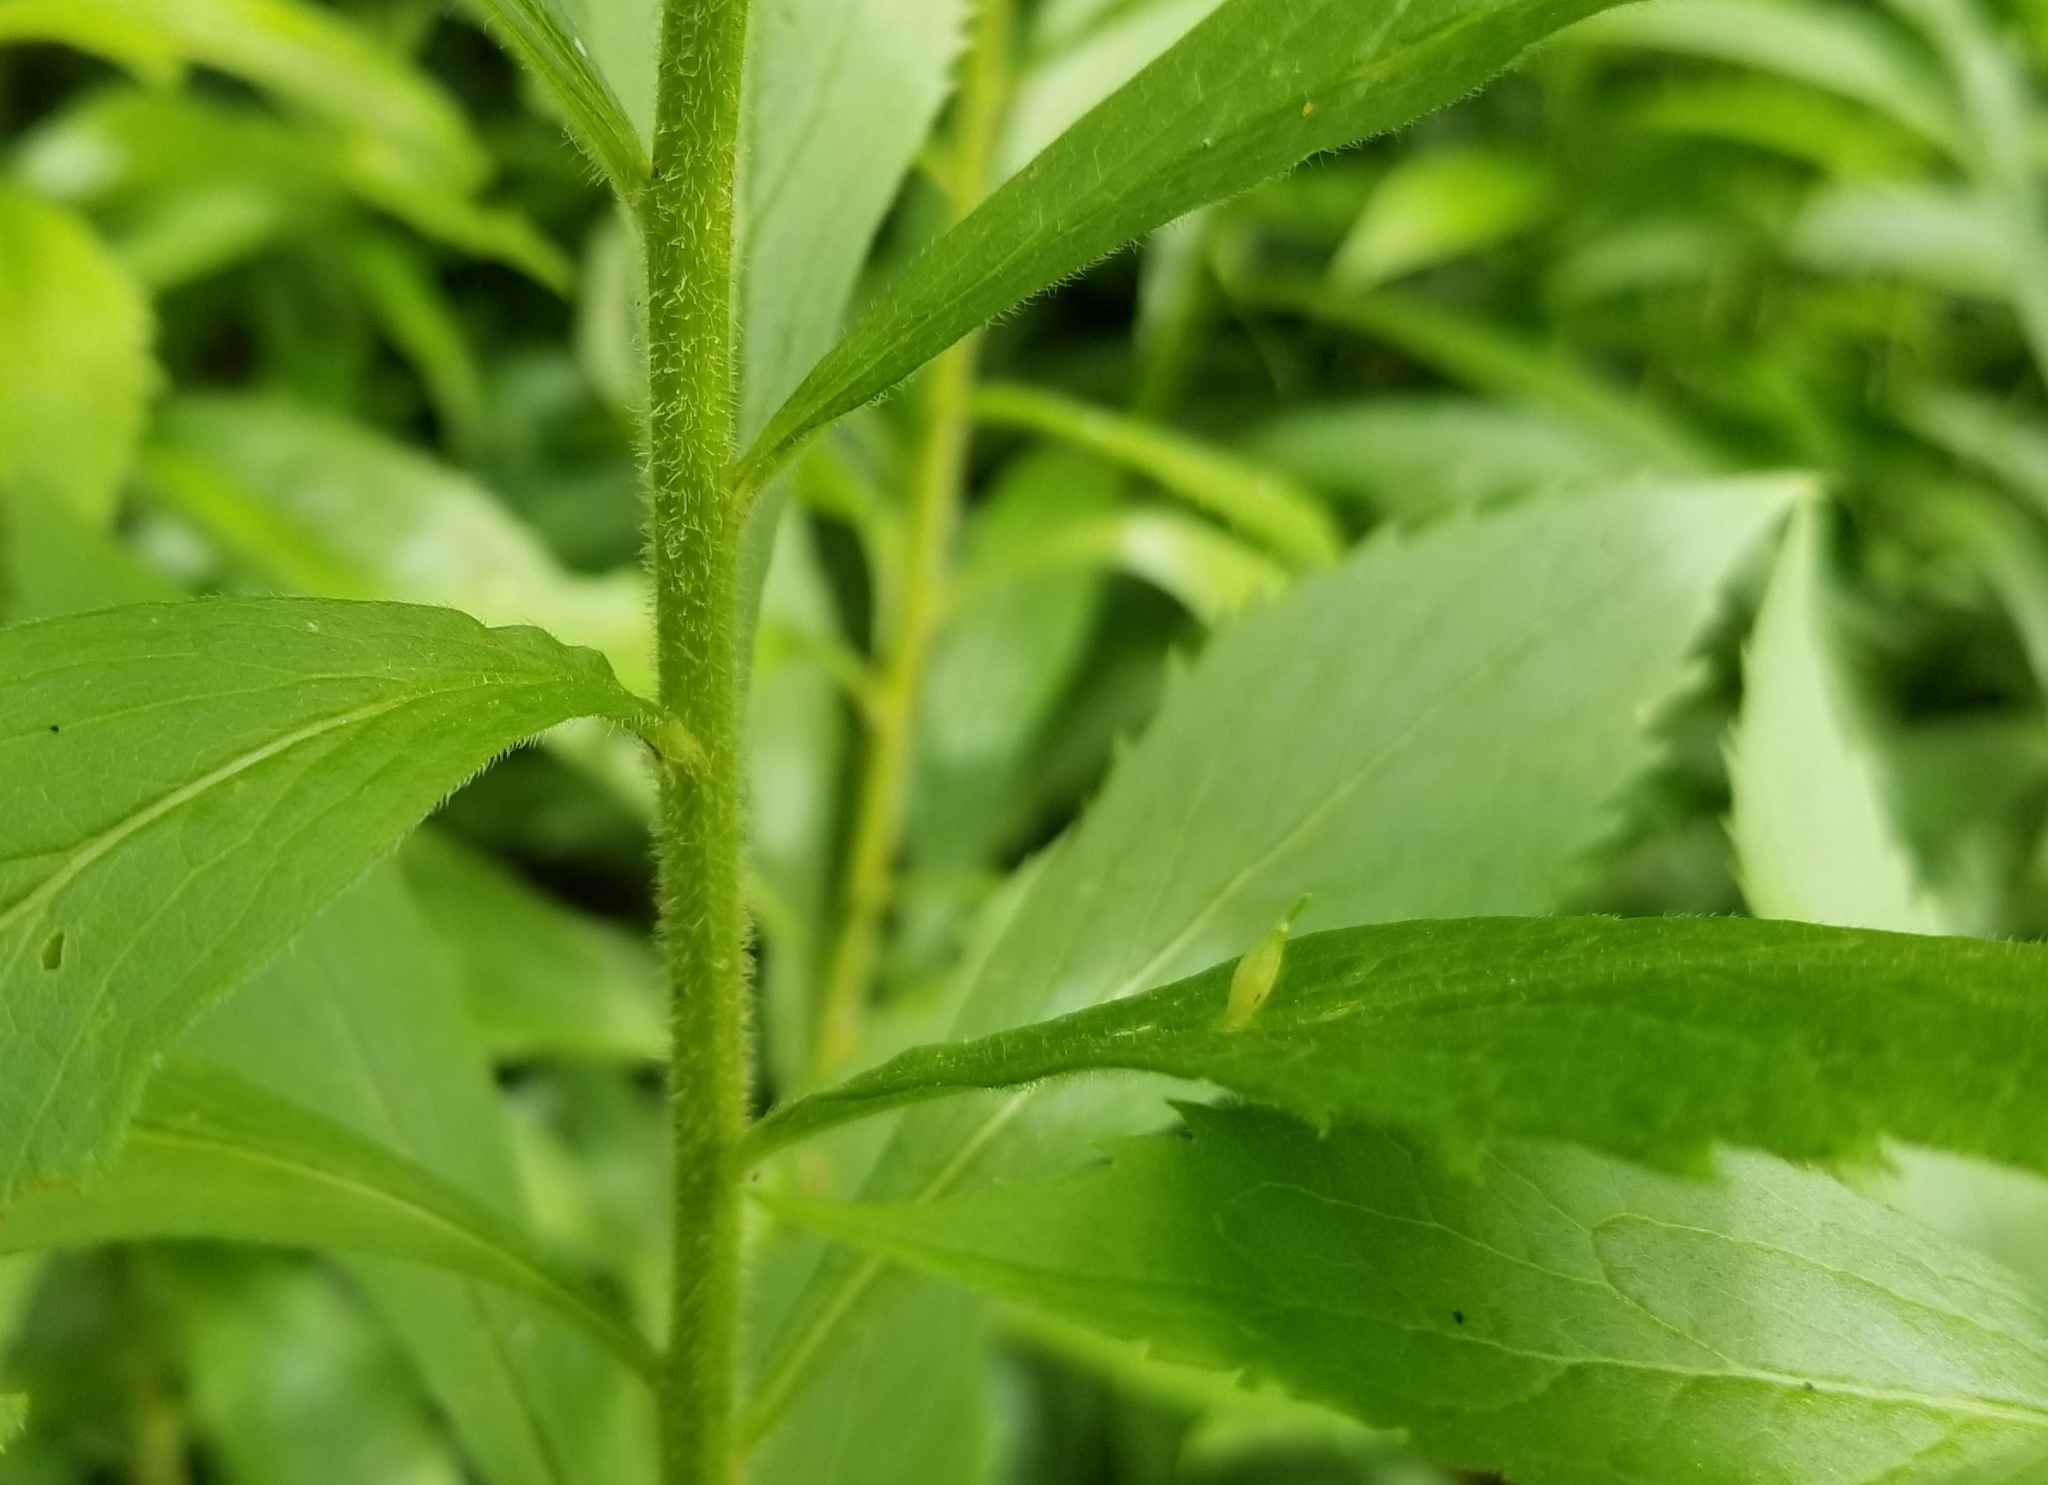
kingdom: Animalia
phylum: Arthropoda
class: Insecta
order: Diptera
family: Cecidomyiidae
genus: Rhopalomyia
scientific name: Rhopalomyia clarkei
